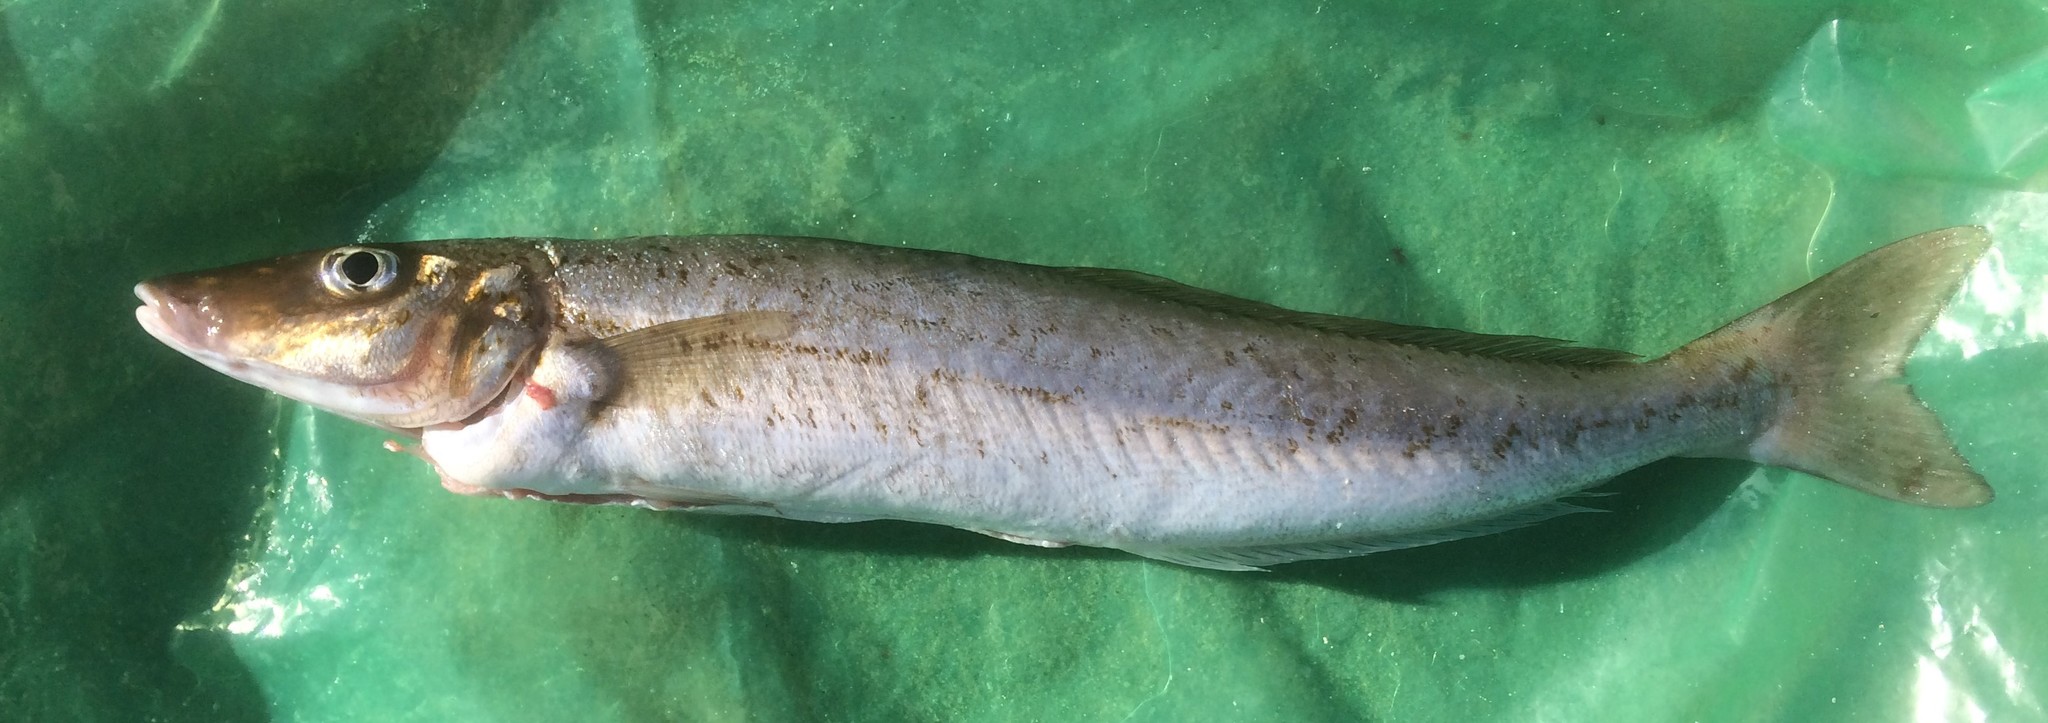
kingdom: Animalia
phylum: Chordata
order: Perciformes
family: Sillaginidae
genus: Sillaginodes
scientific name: Sillaginodes punctatus
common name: King george whiting
